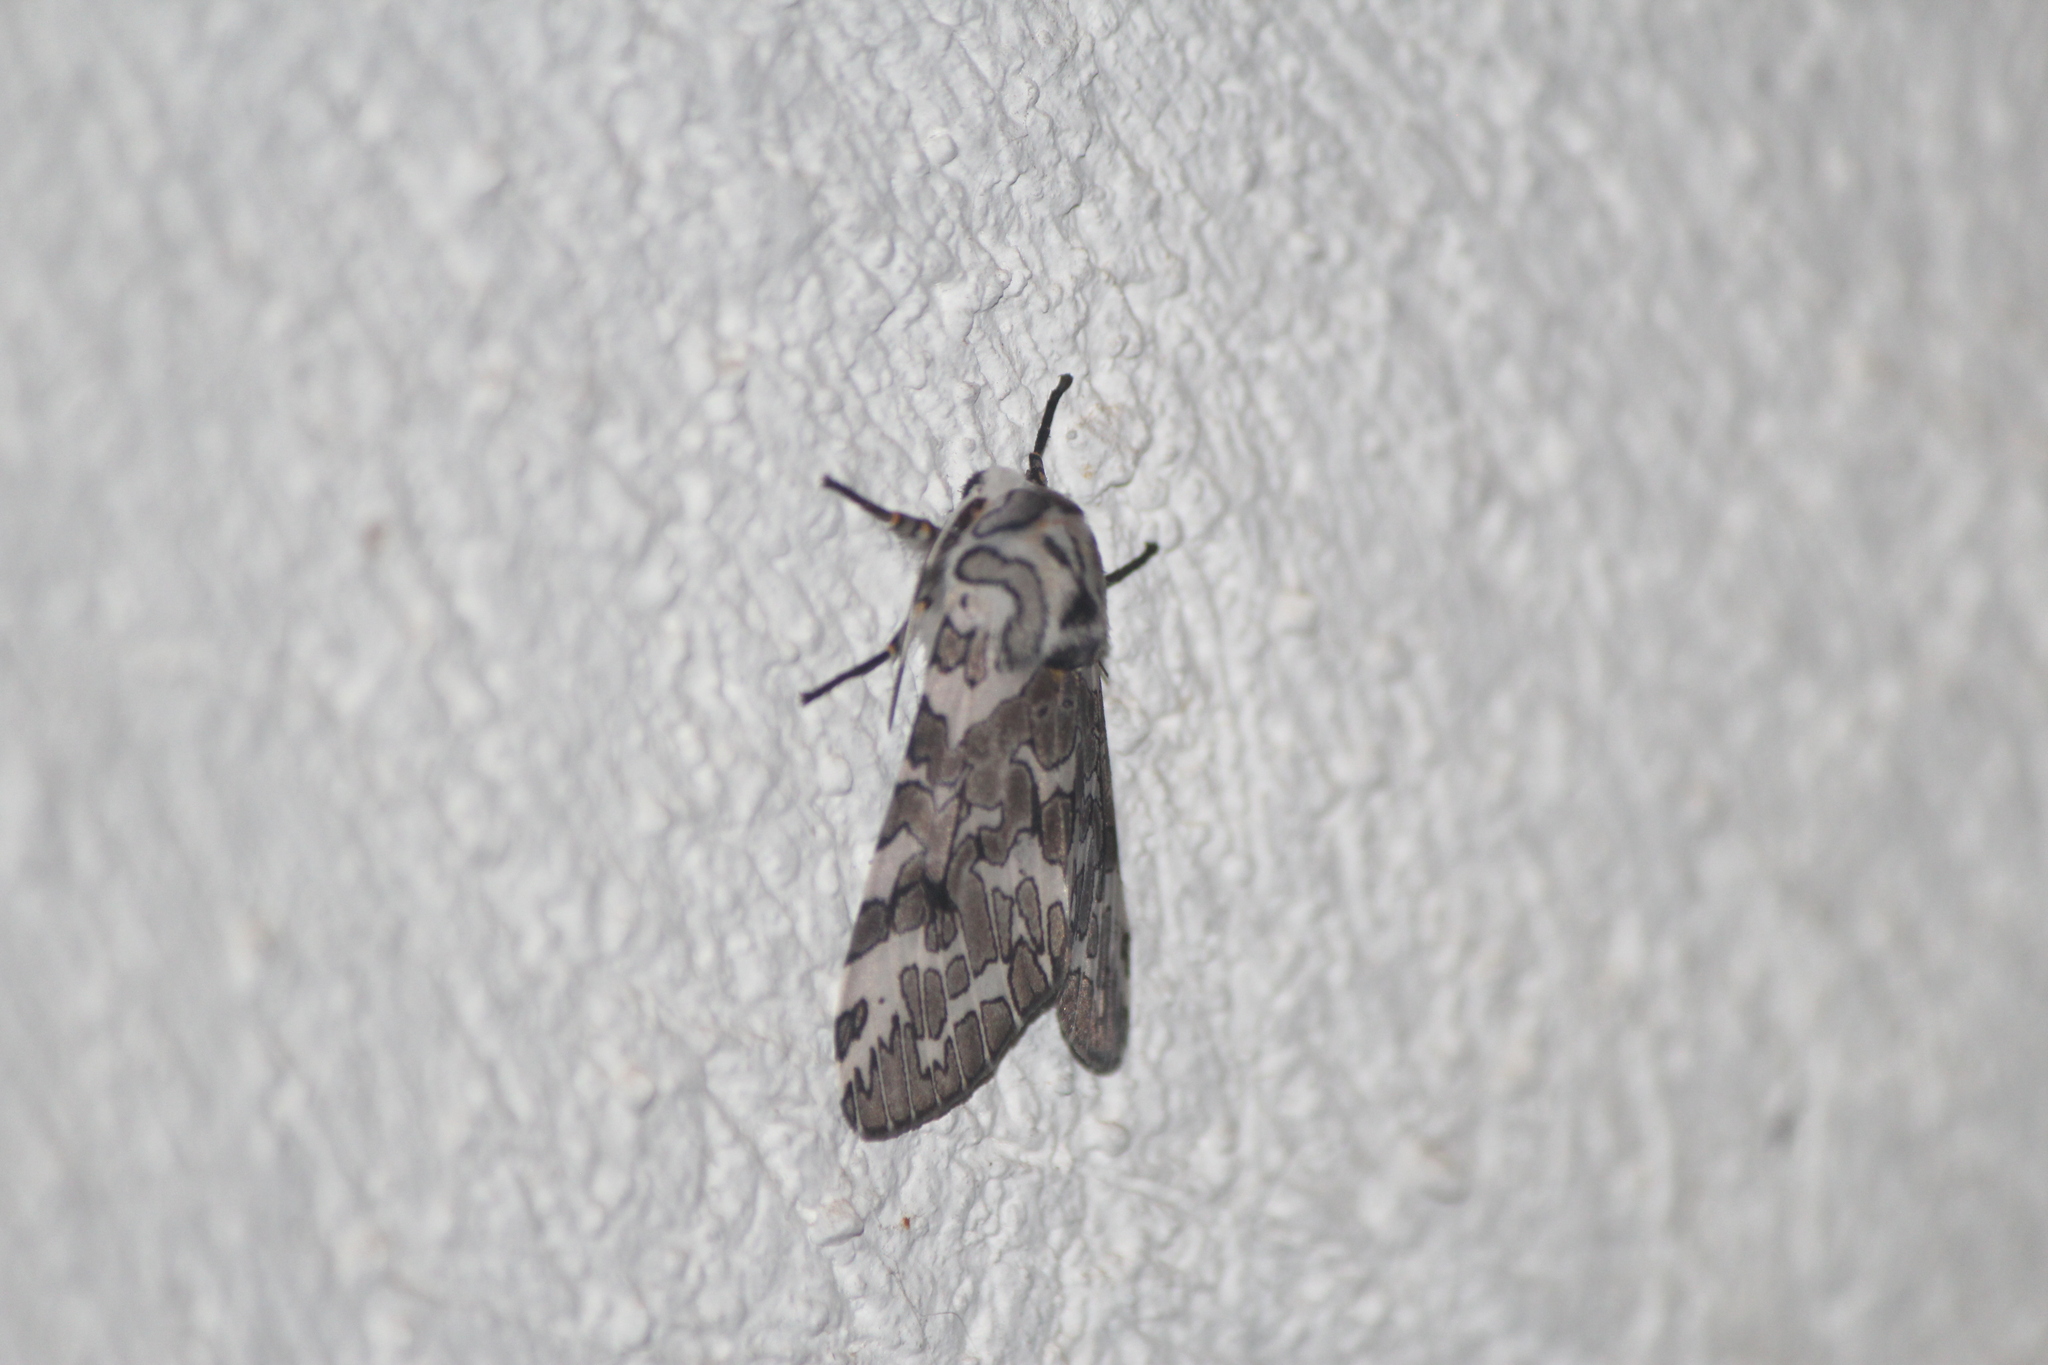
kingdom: Animalia
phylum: Arthropoda
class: Insecta
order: Lepidoptera
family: Erebidae
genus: Hypercompe
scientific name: Hypercompe suffusa
